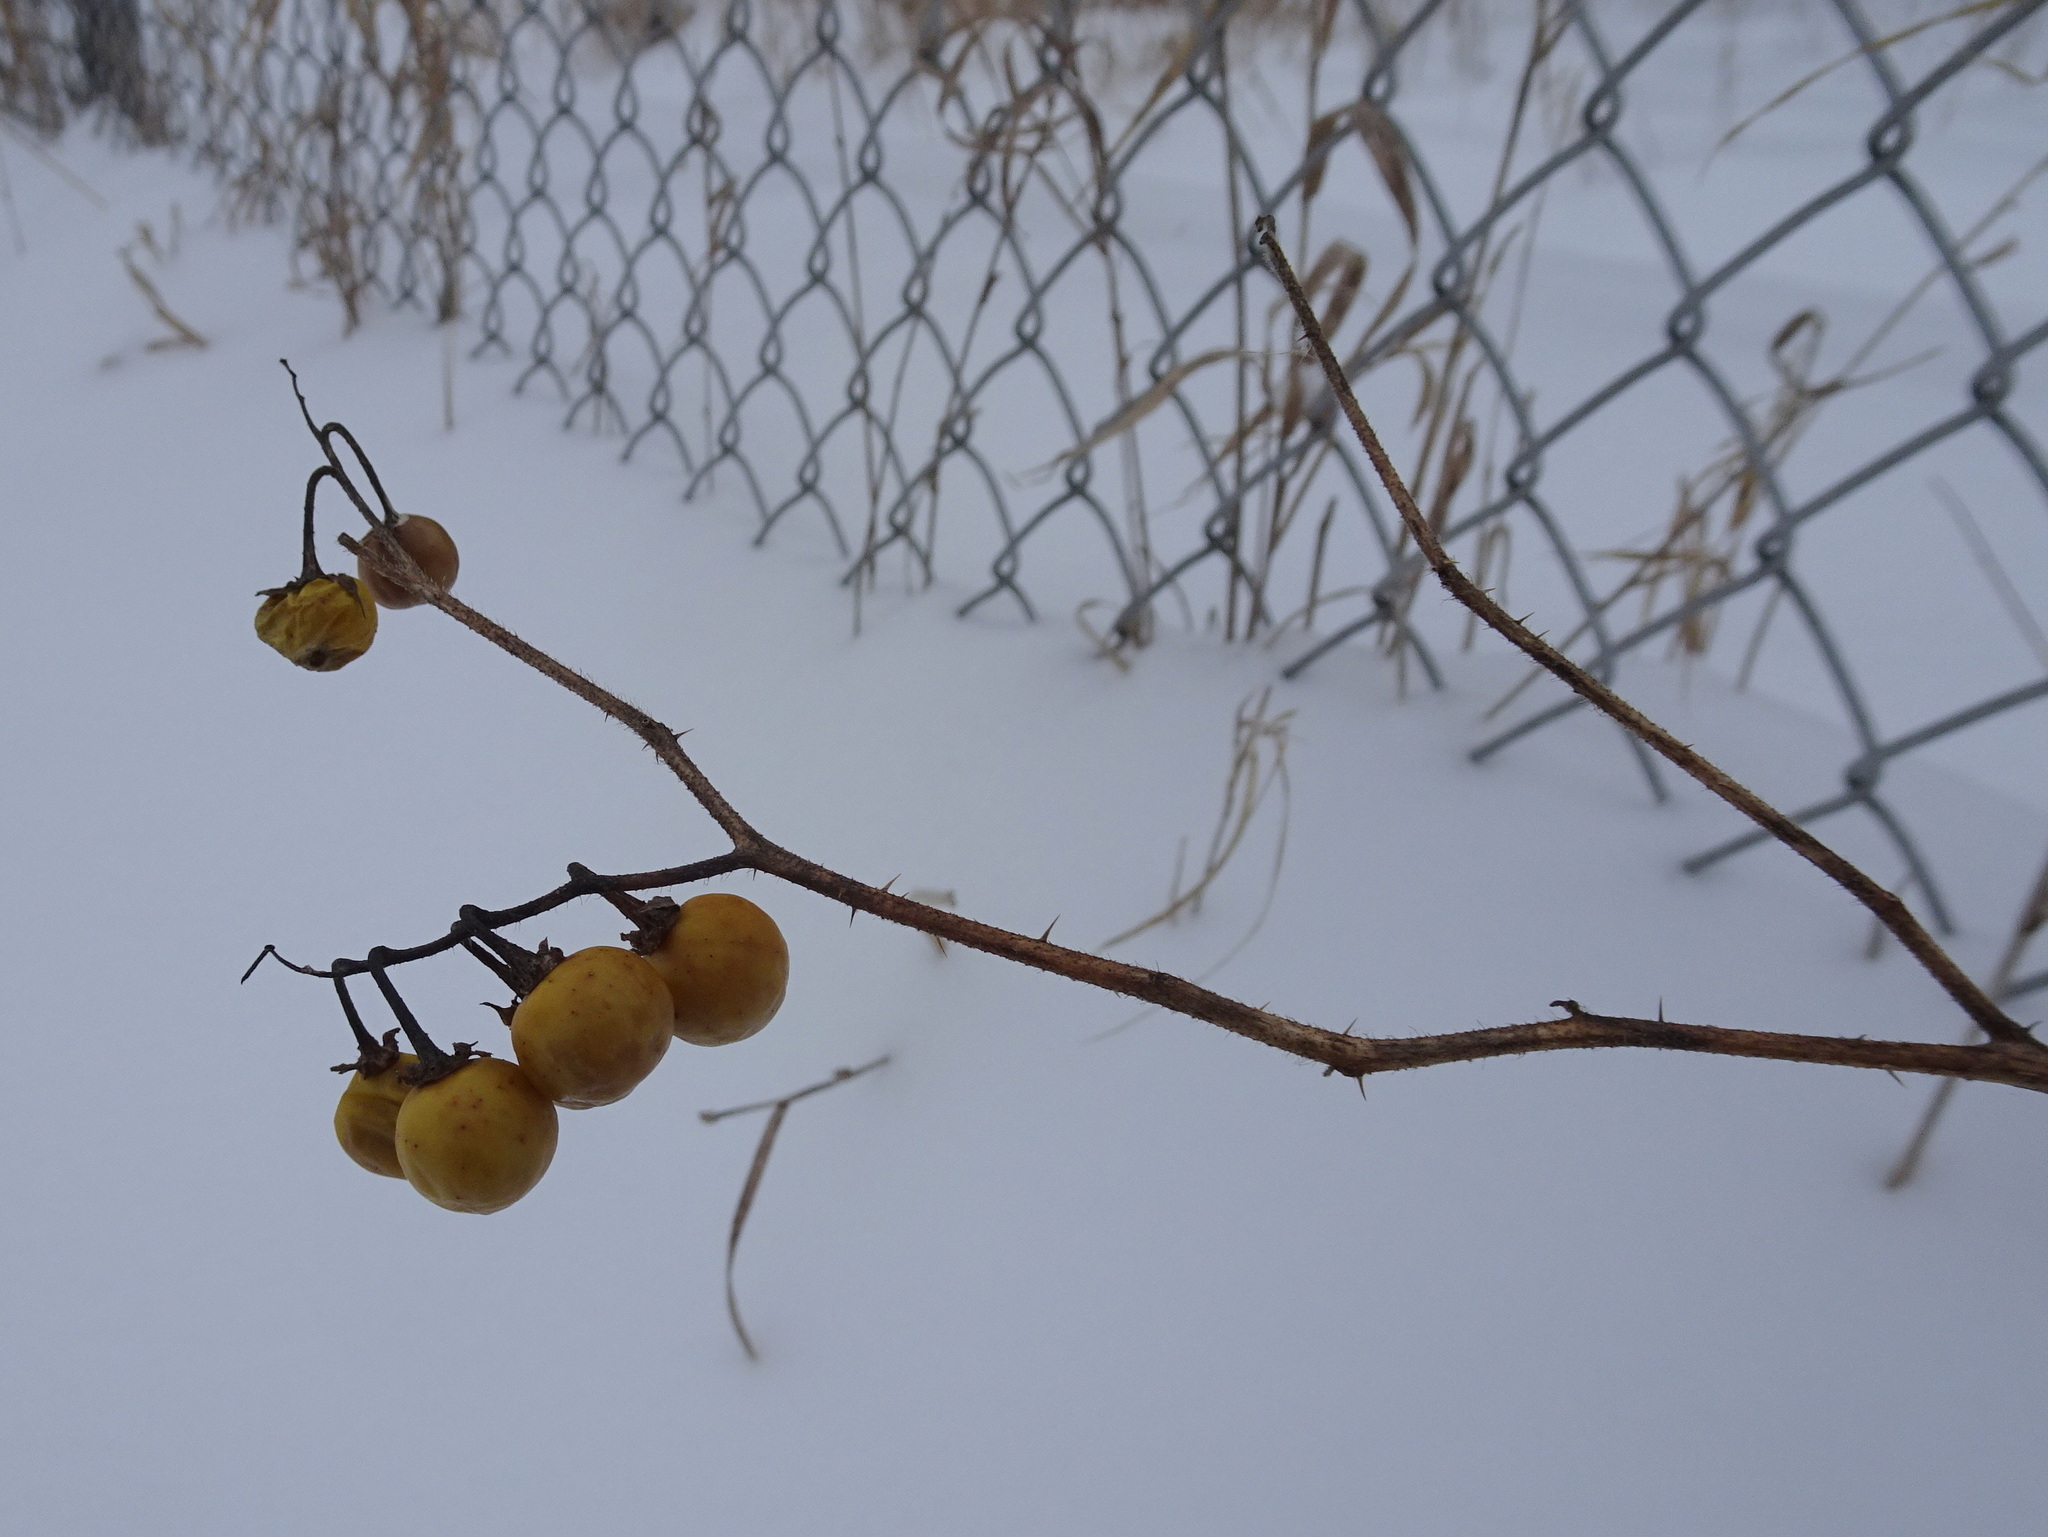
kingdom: Plantae
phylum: Tracheophyta
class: Magnoliopsida
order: Solanales
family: Solanaceae
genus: Solanum
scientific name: Solanum carolinense
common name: Horse-nettle
